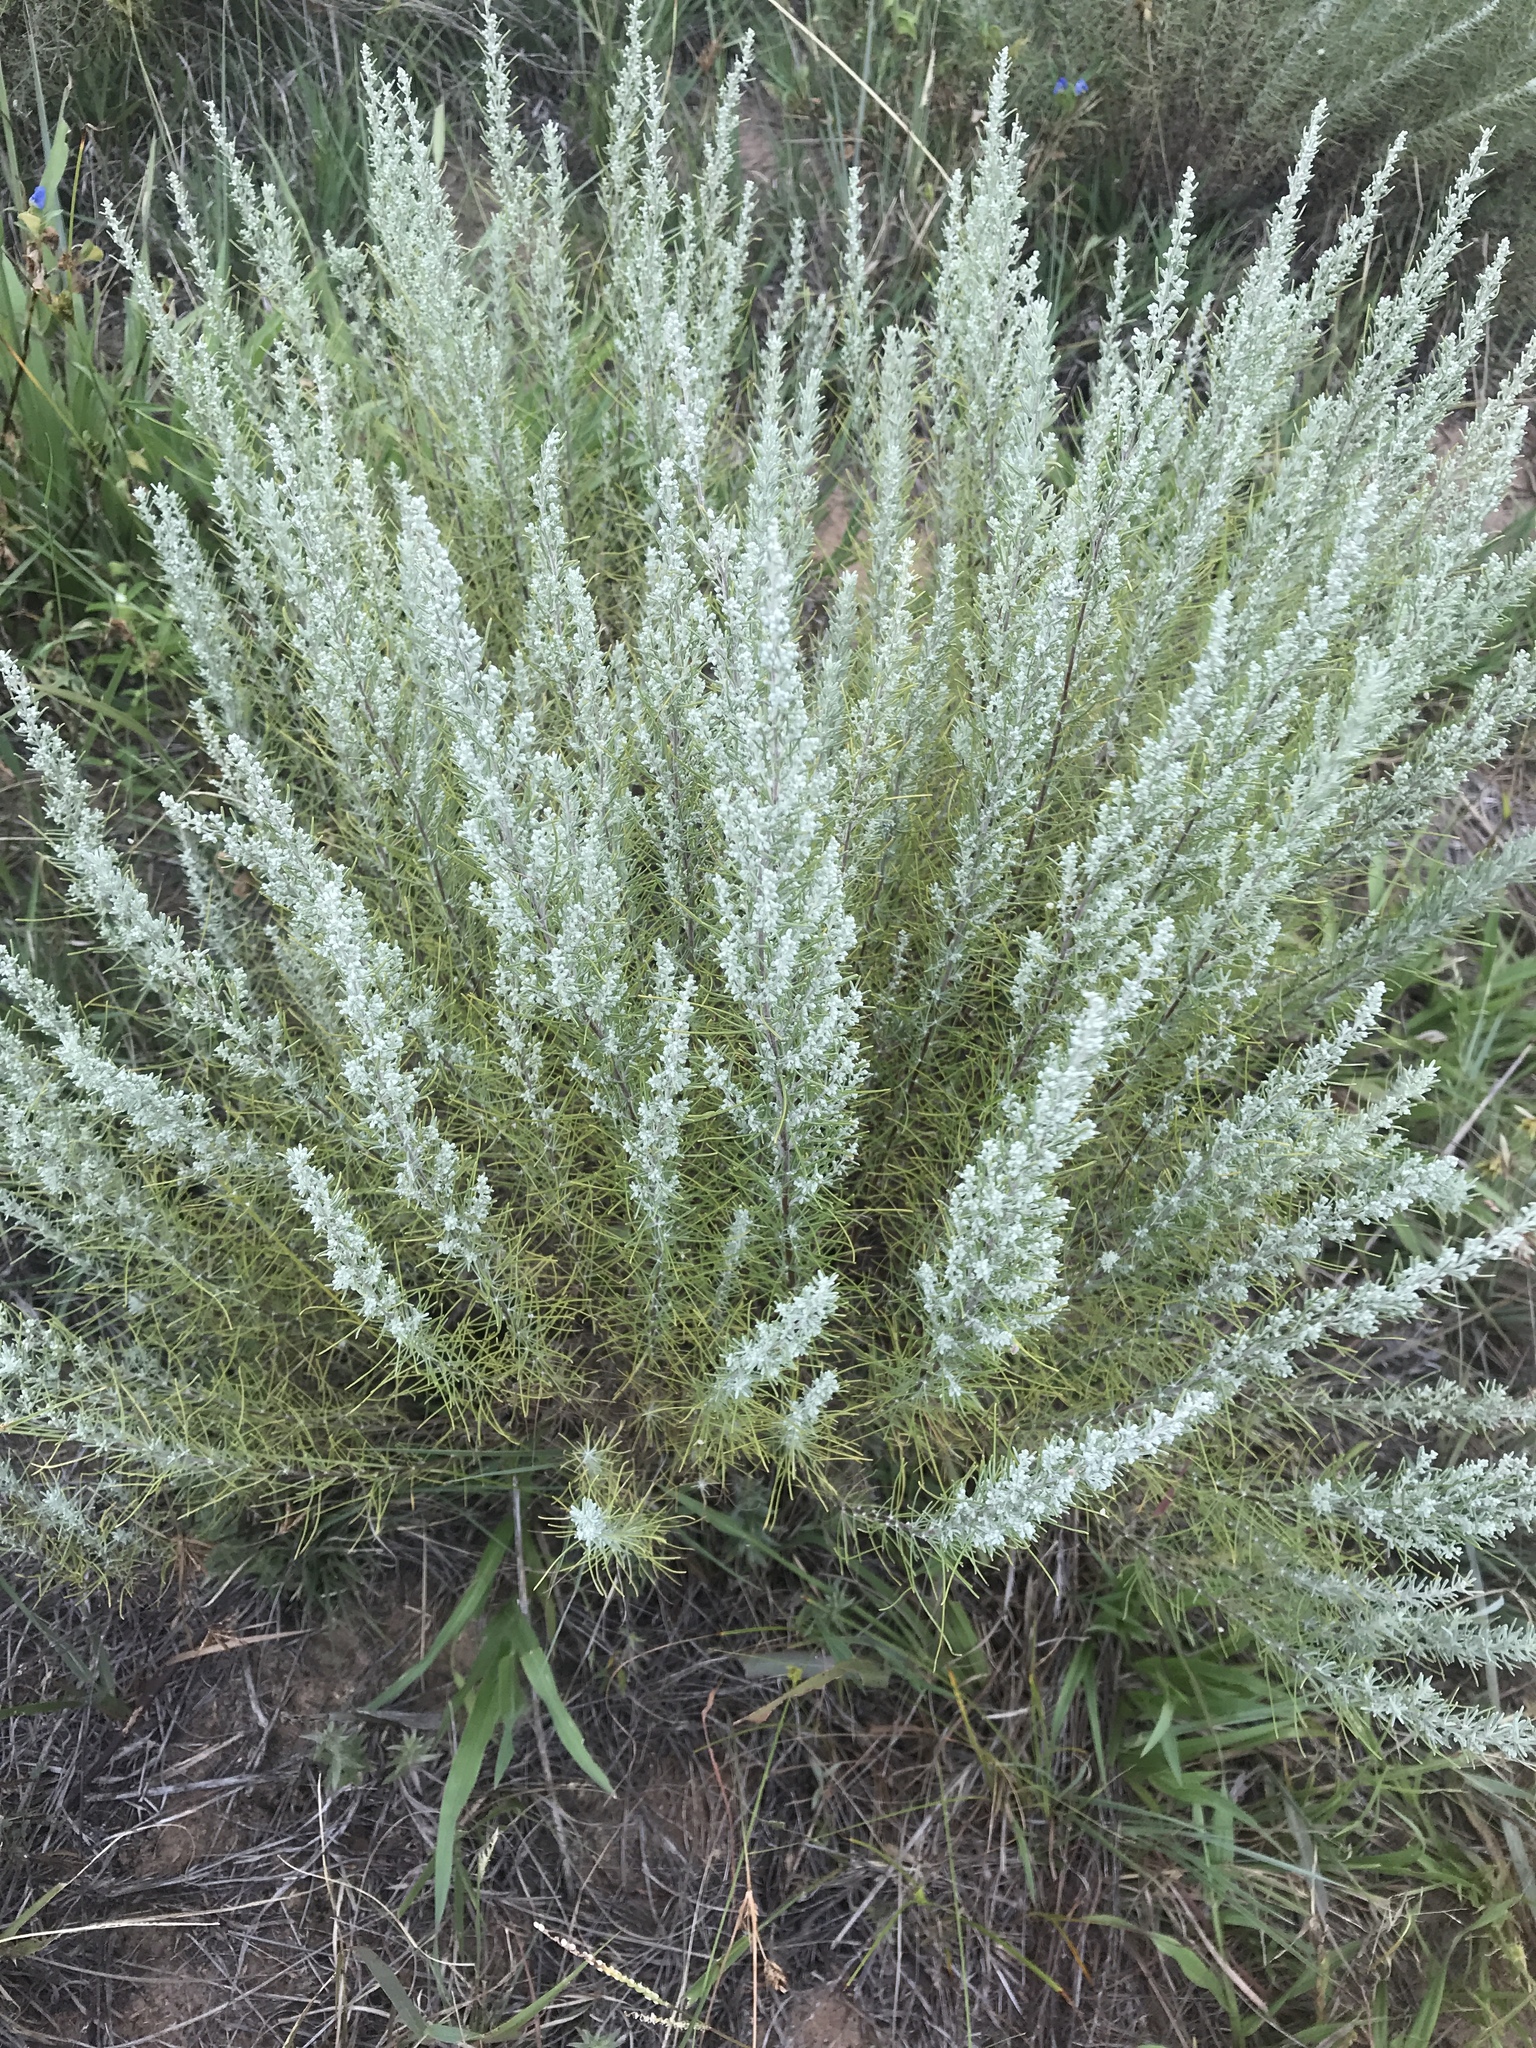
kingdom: Plantae
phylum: Tracheophyta
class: Magnoliopsida
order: Asterales
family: Asteraceae
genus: Artemisia
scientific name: Artemisia filifolia
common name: Sand-sage
